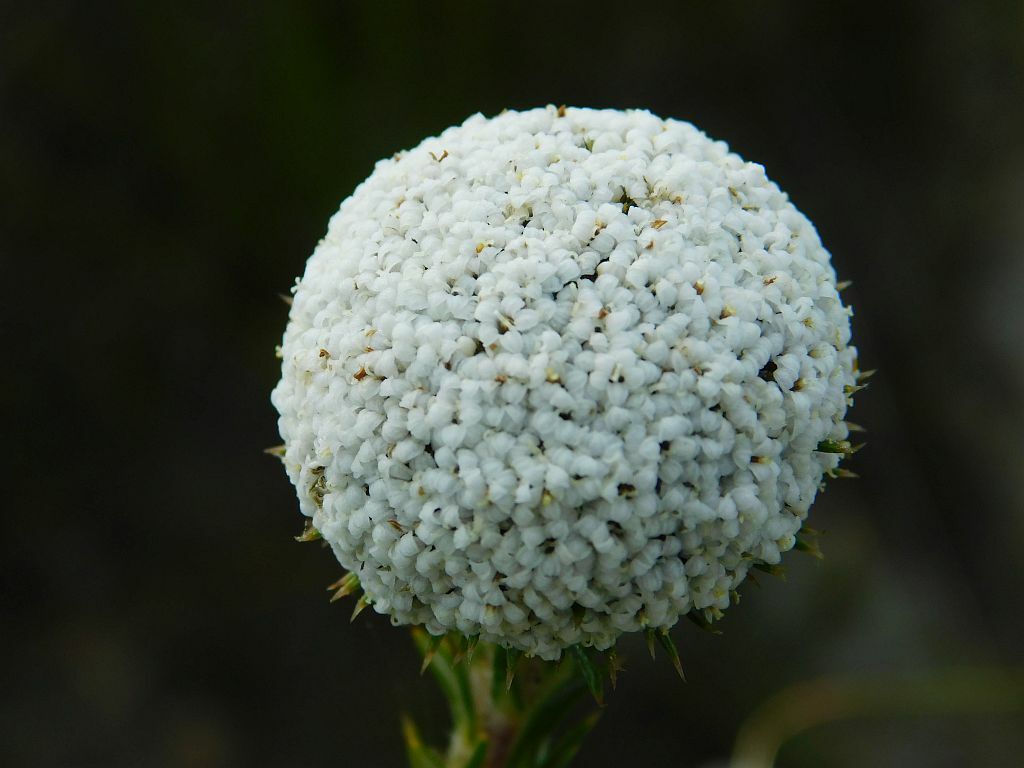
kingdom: Plantae
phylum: Tracheophyta
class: Magnoliopsida
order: Asterales
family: Asteraceae
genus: Stoebe
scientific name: Stoebe aethiopica
